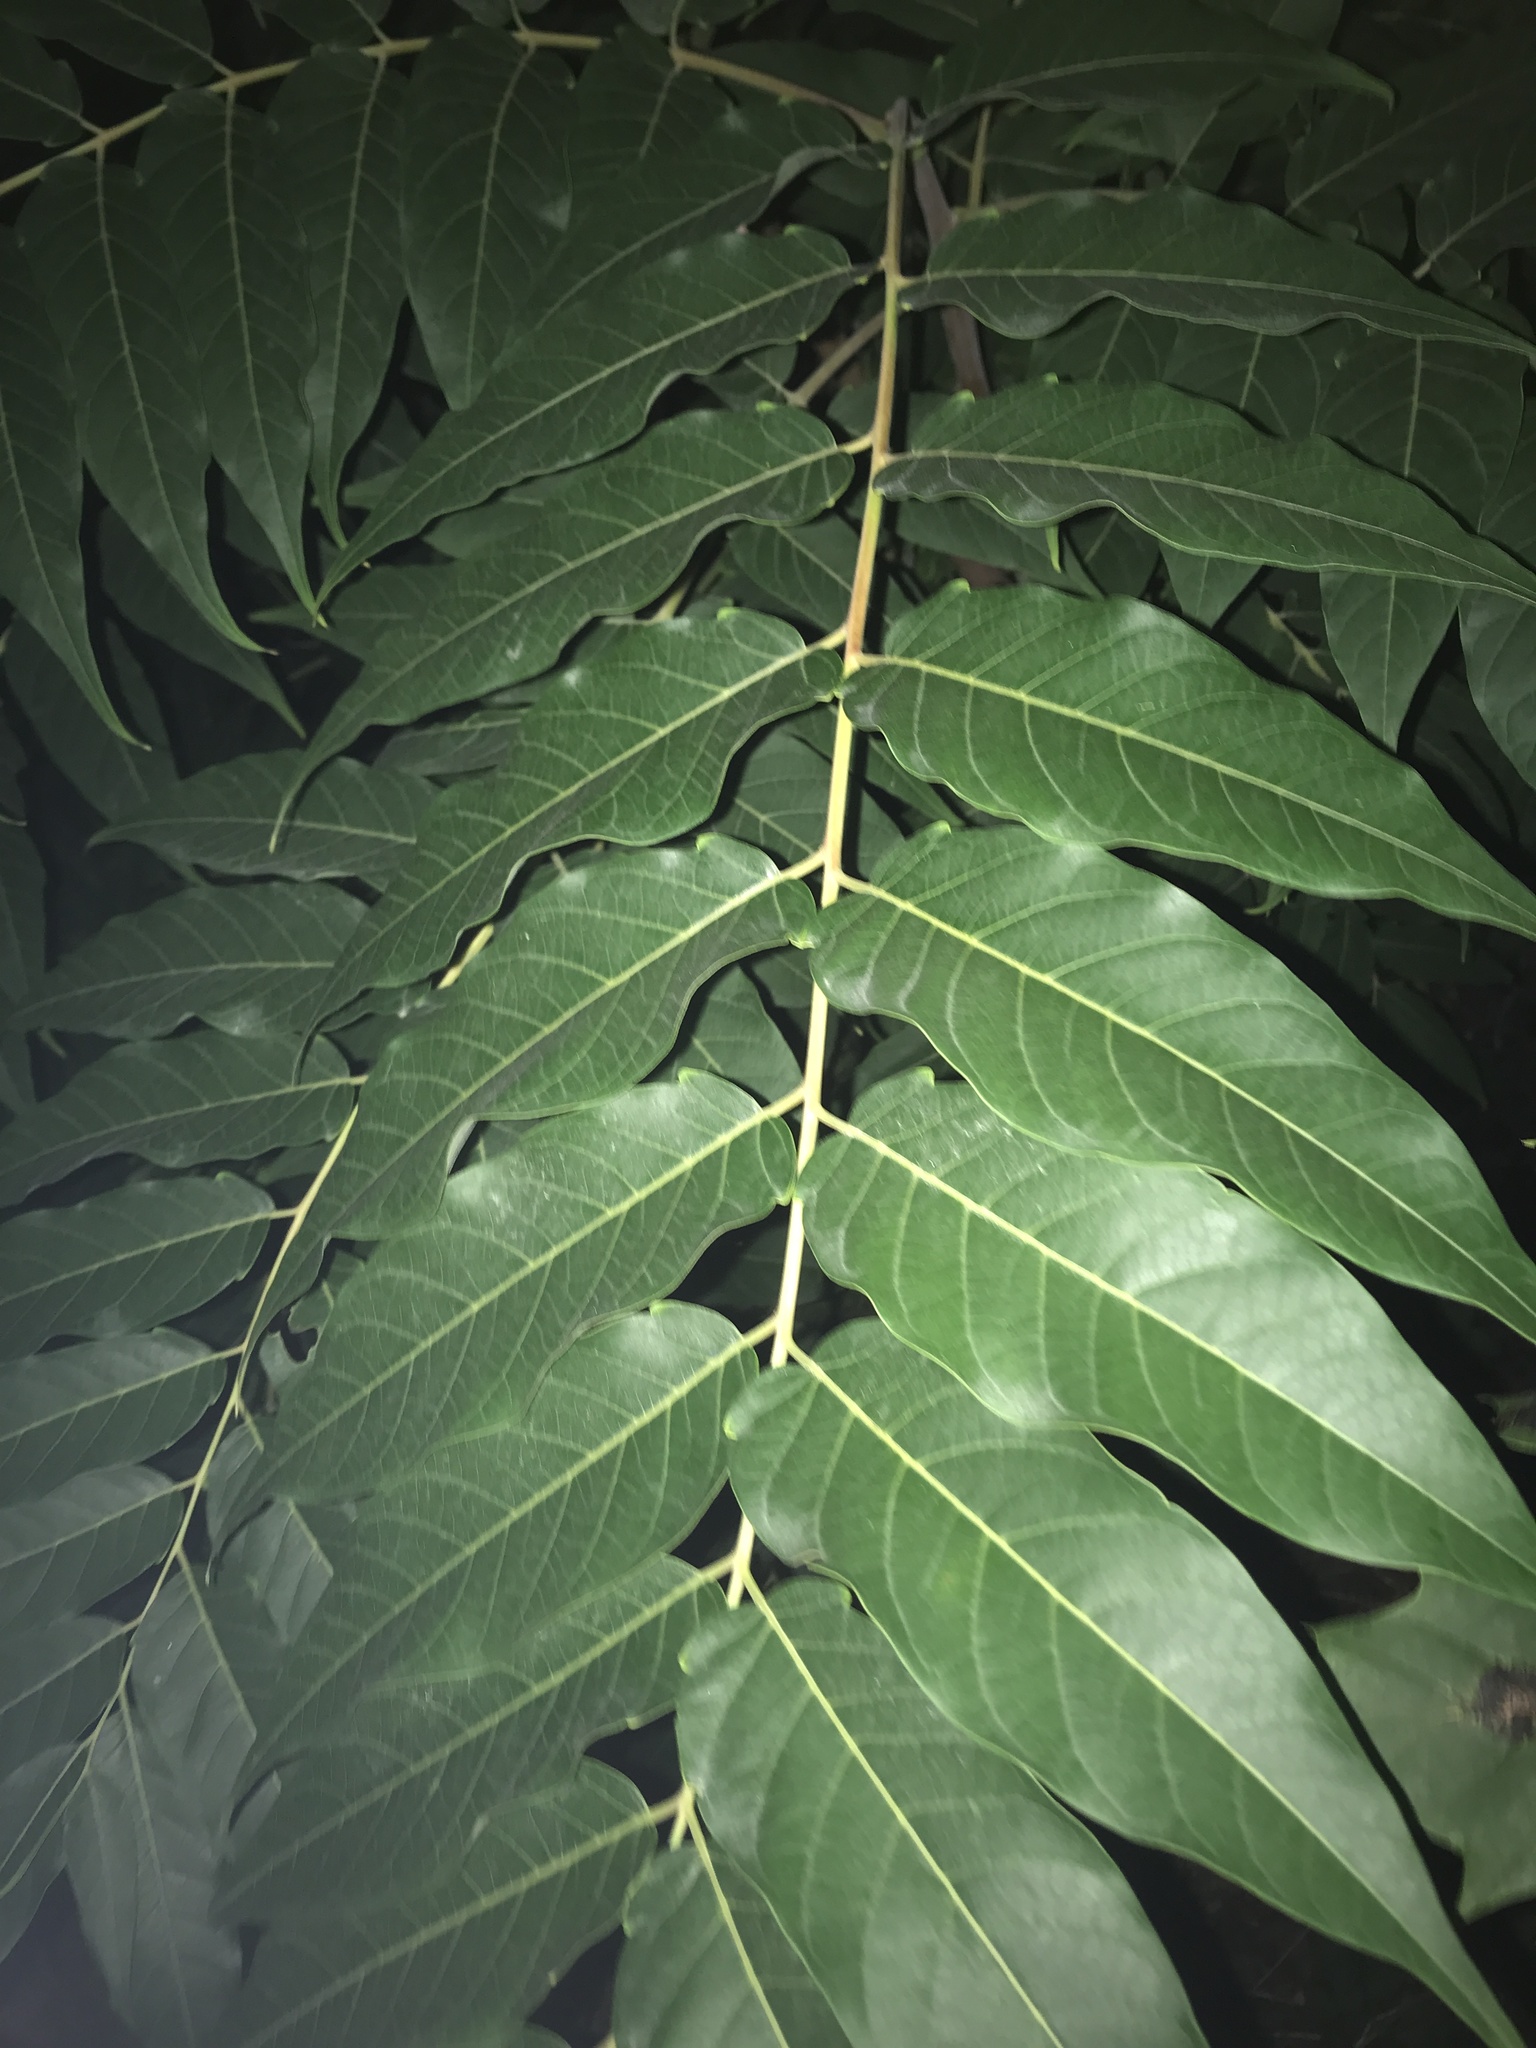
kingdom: Plantae
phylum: Tracheophyta
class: Magnoliopsida
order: Sapindales
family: Simaroubaceae
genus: Ailanthus
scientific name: Ailanthus altissima
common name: Tree-of-heaven
